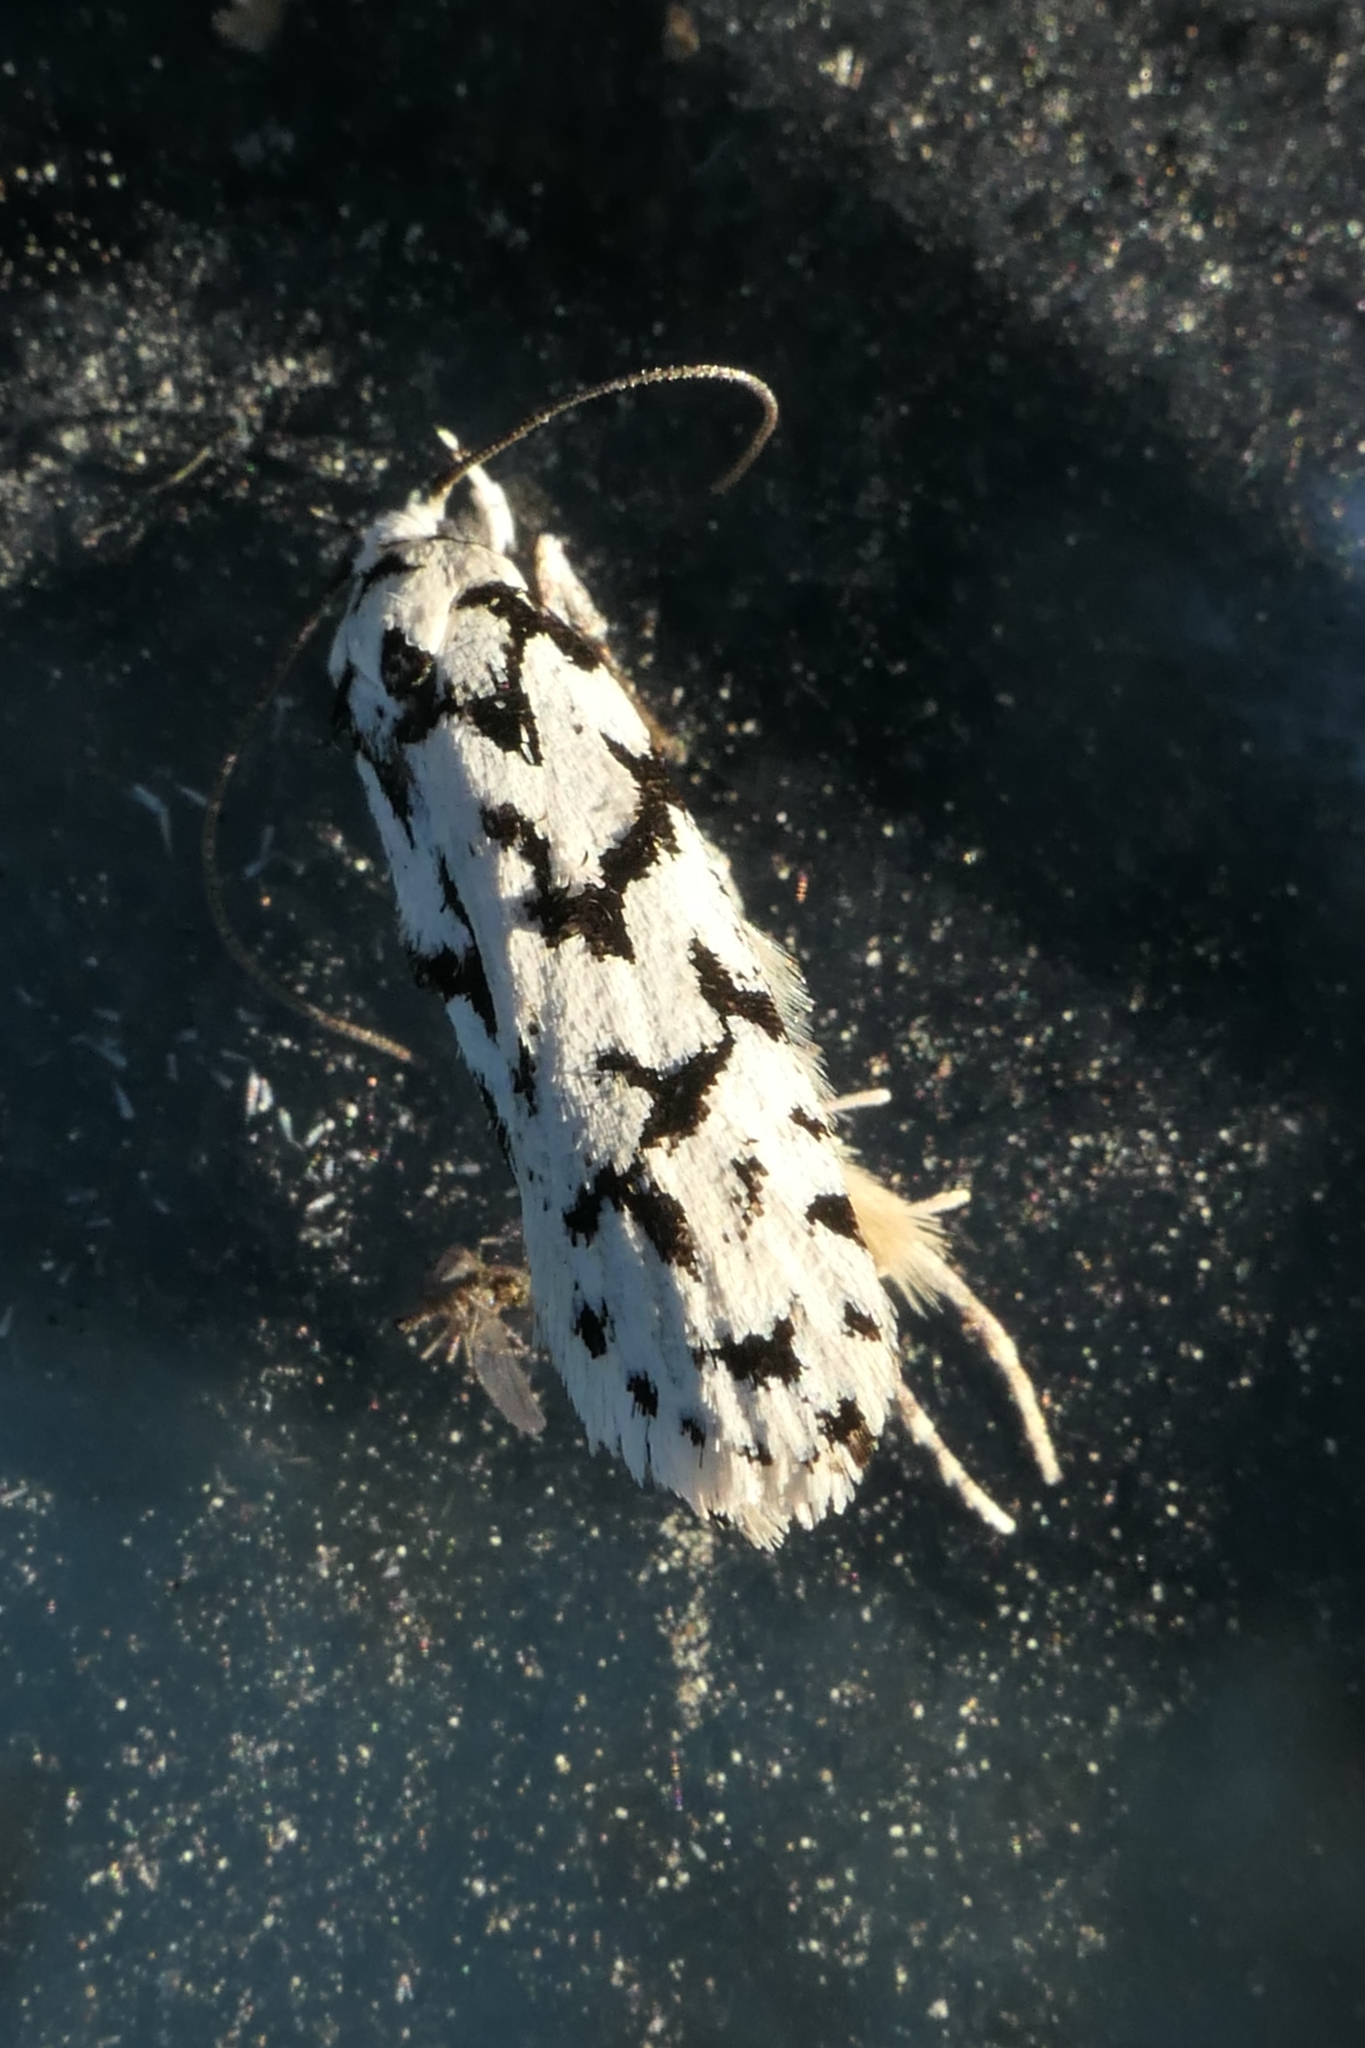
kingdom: Animalia
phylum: Arthropoda
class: Insecta
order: Lepidoptera
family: Oecophoridae
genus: Izatha
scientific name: Izatha katadiktya
